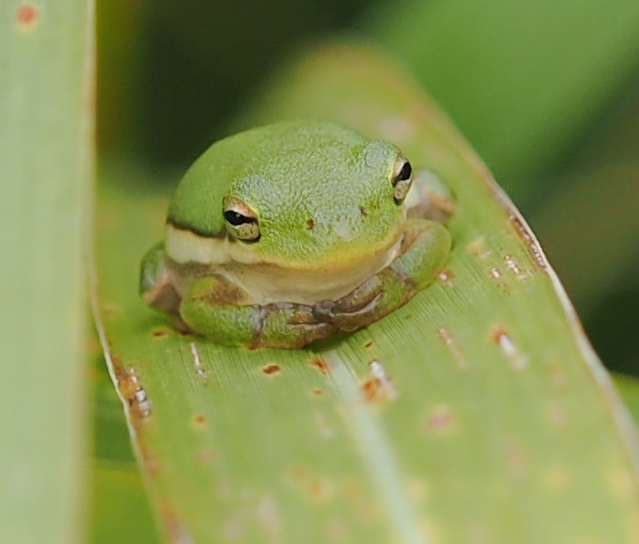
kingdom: Animalia
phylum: Chordata
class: Amphibia
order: Anura
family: Hylidae
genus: Dryophytes
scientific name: Dryophytes cinereus
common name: Green treefrog
